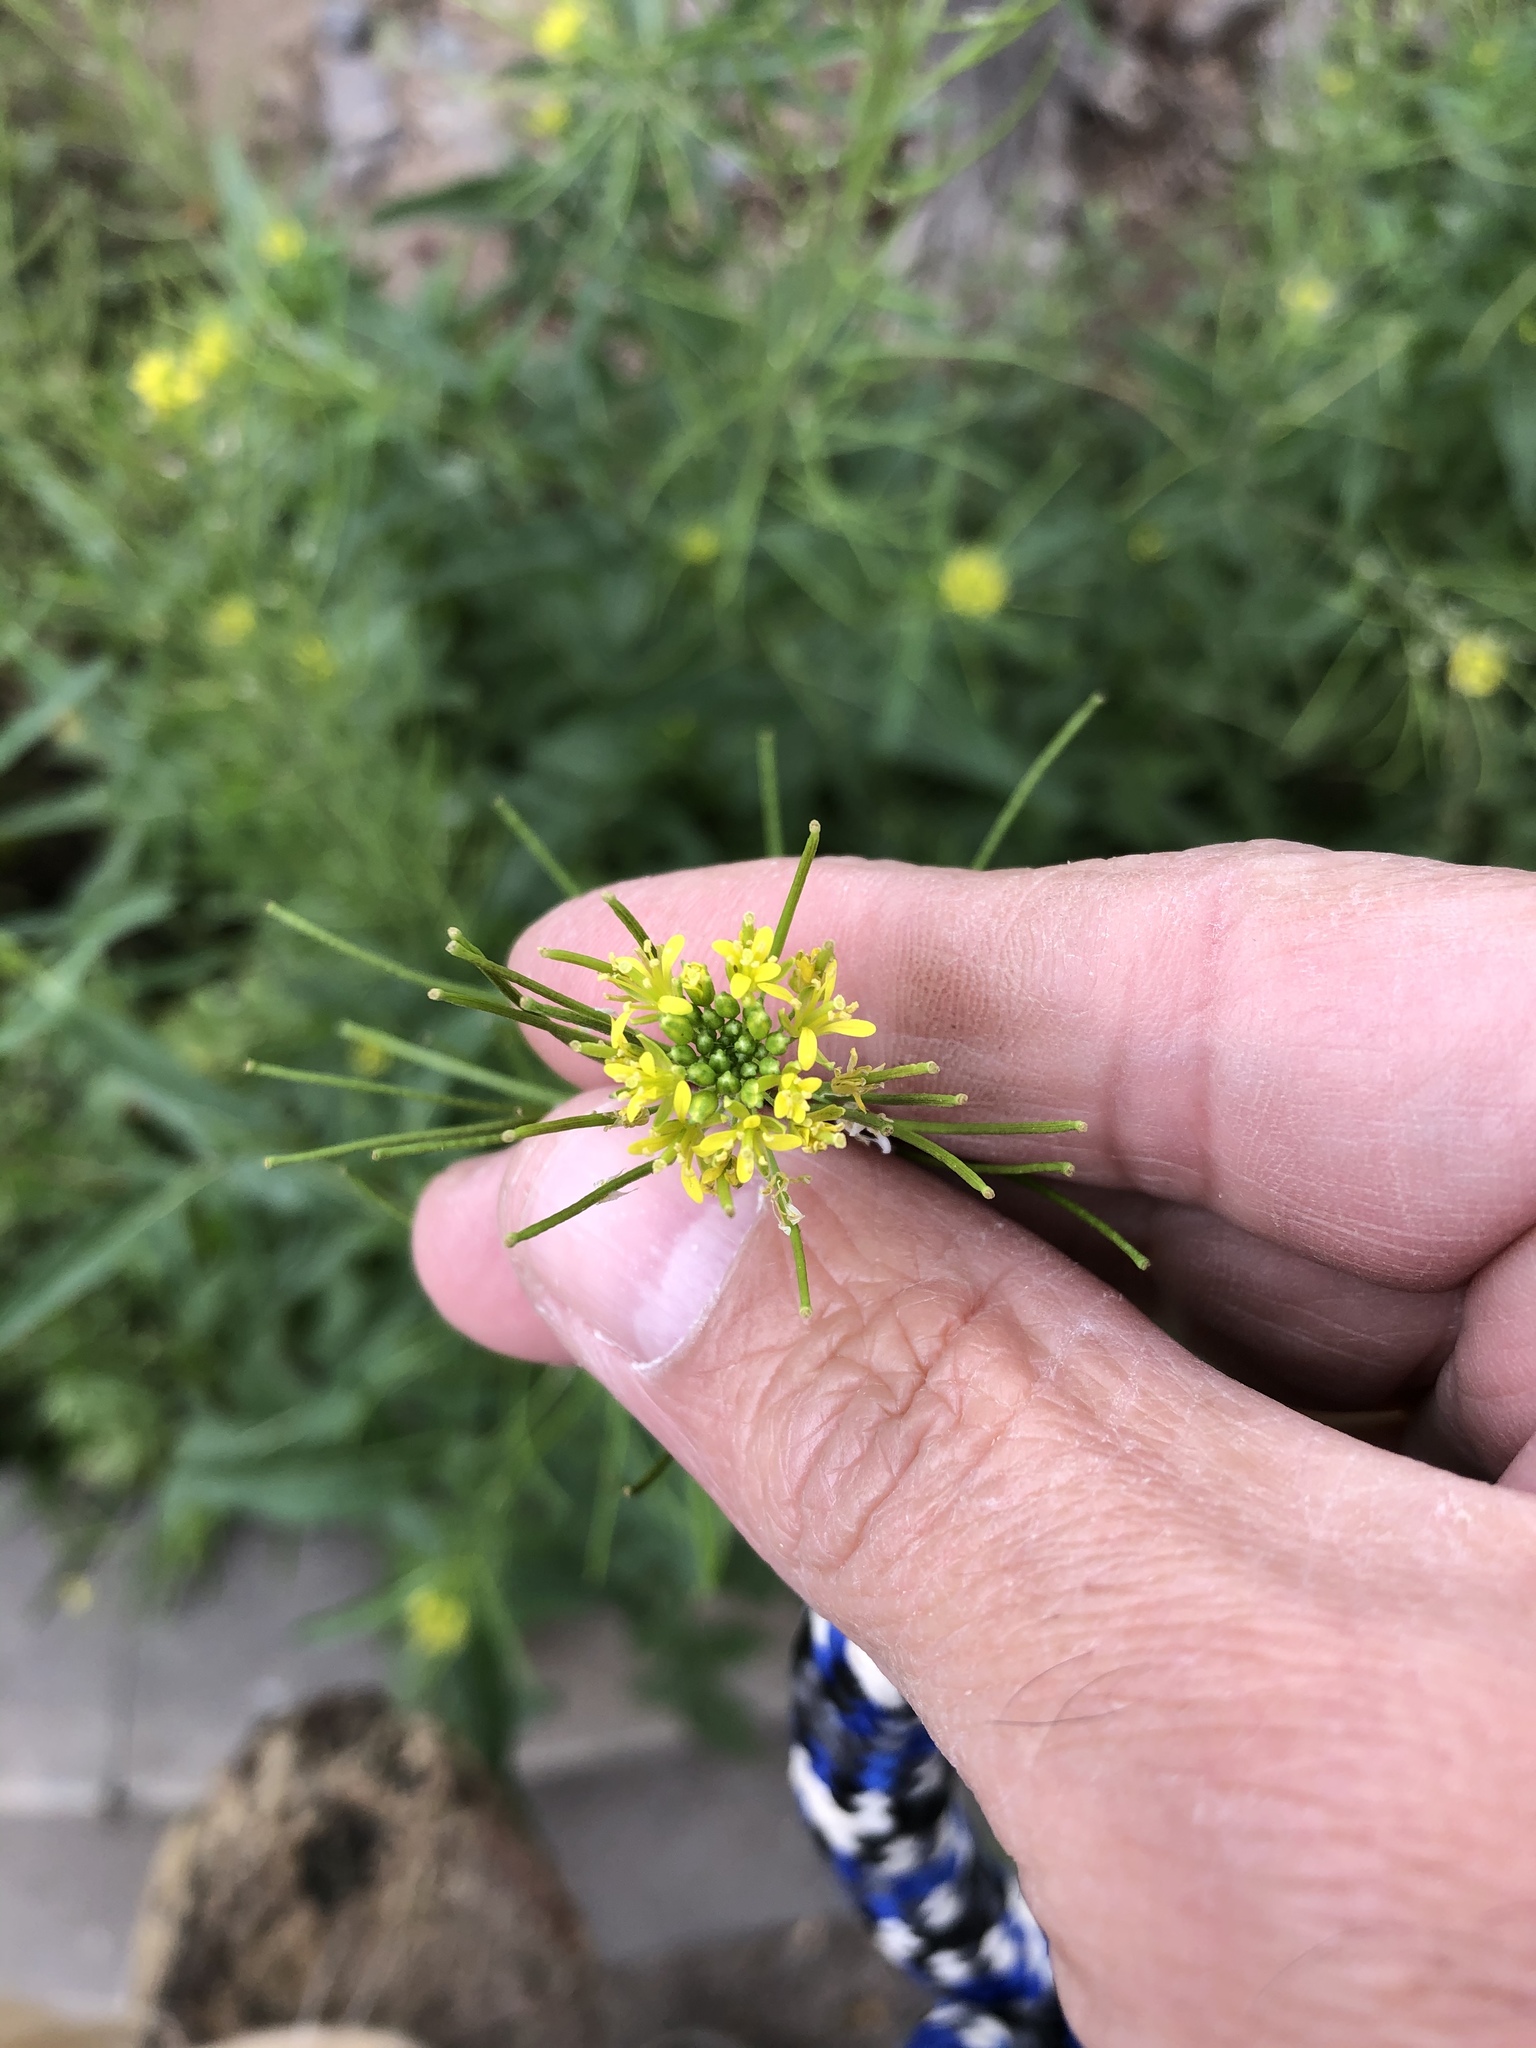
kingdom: Plantae
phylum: Tracheophyta
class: Magnoliopsida
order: Brassicales
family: Brassicaceae
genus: Sisymbrium
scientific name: Sisymbrium irio
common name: London rocket
